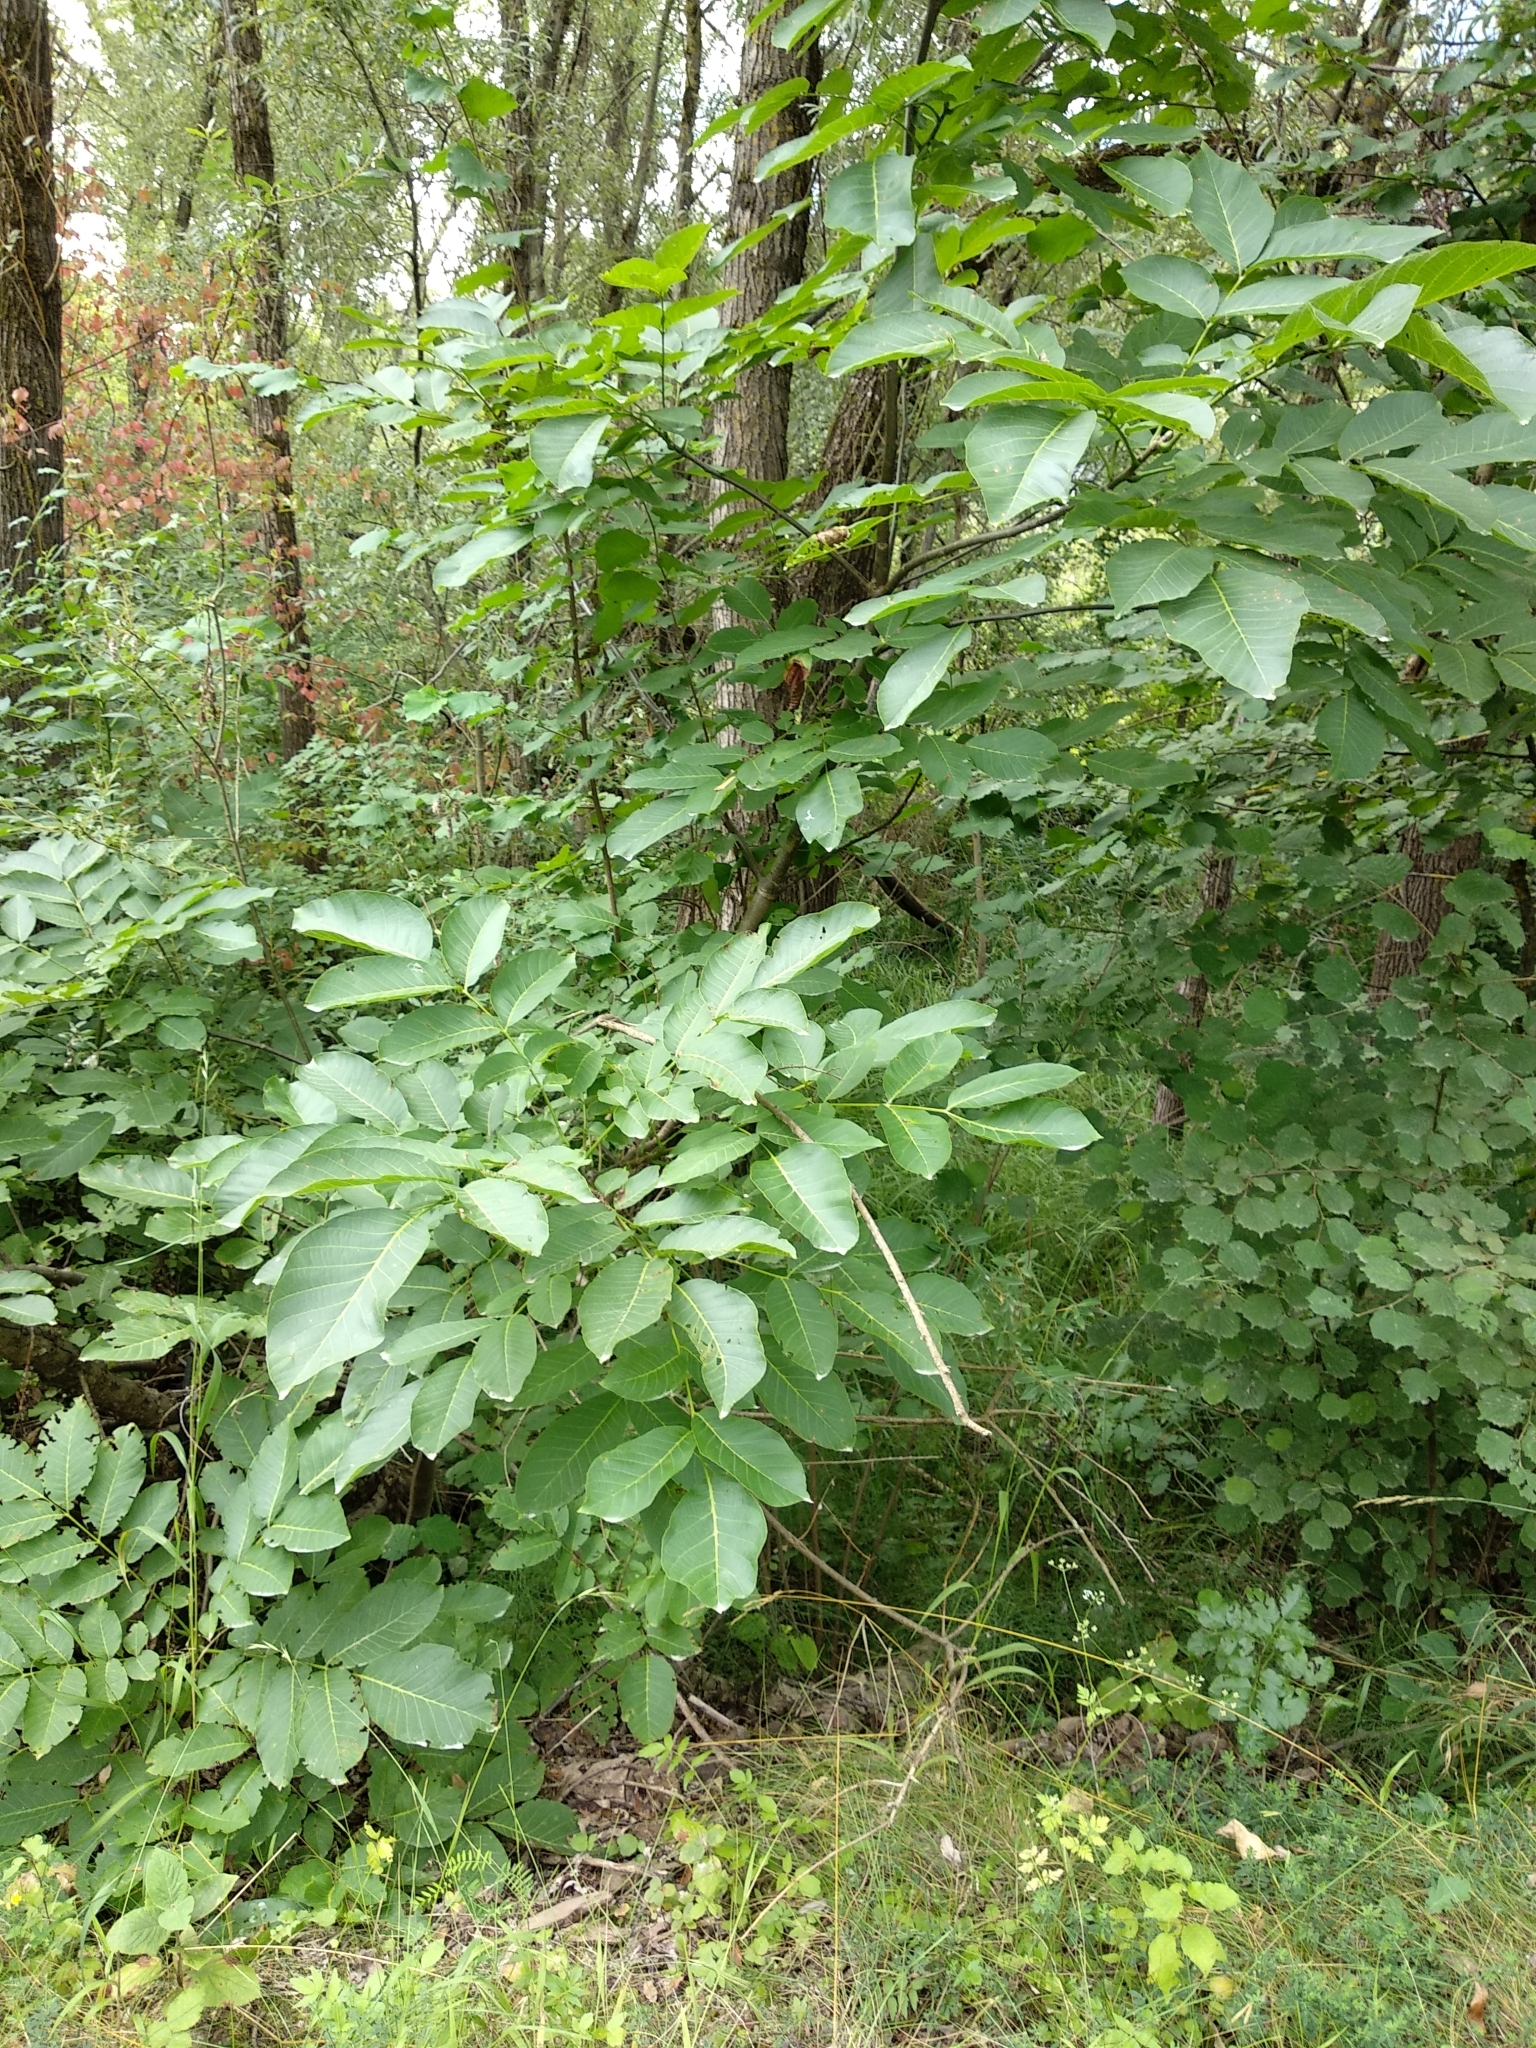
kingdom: Plantae
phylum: Tracheophyta
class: Magnoliopsida
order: Fagales
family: Juglandaceae
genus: Juglans
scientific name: Juglans regia
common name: Walnut
